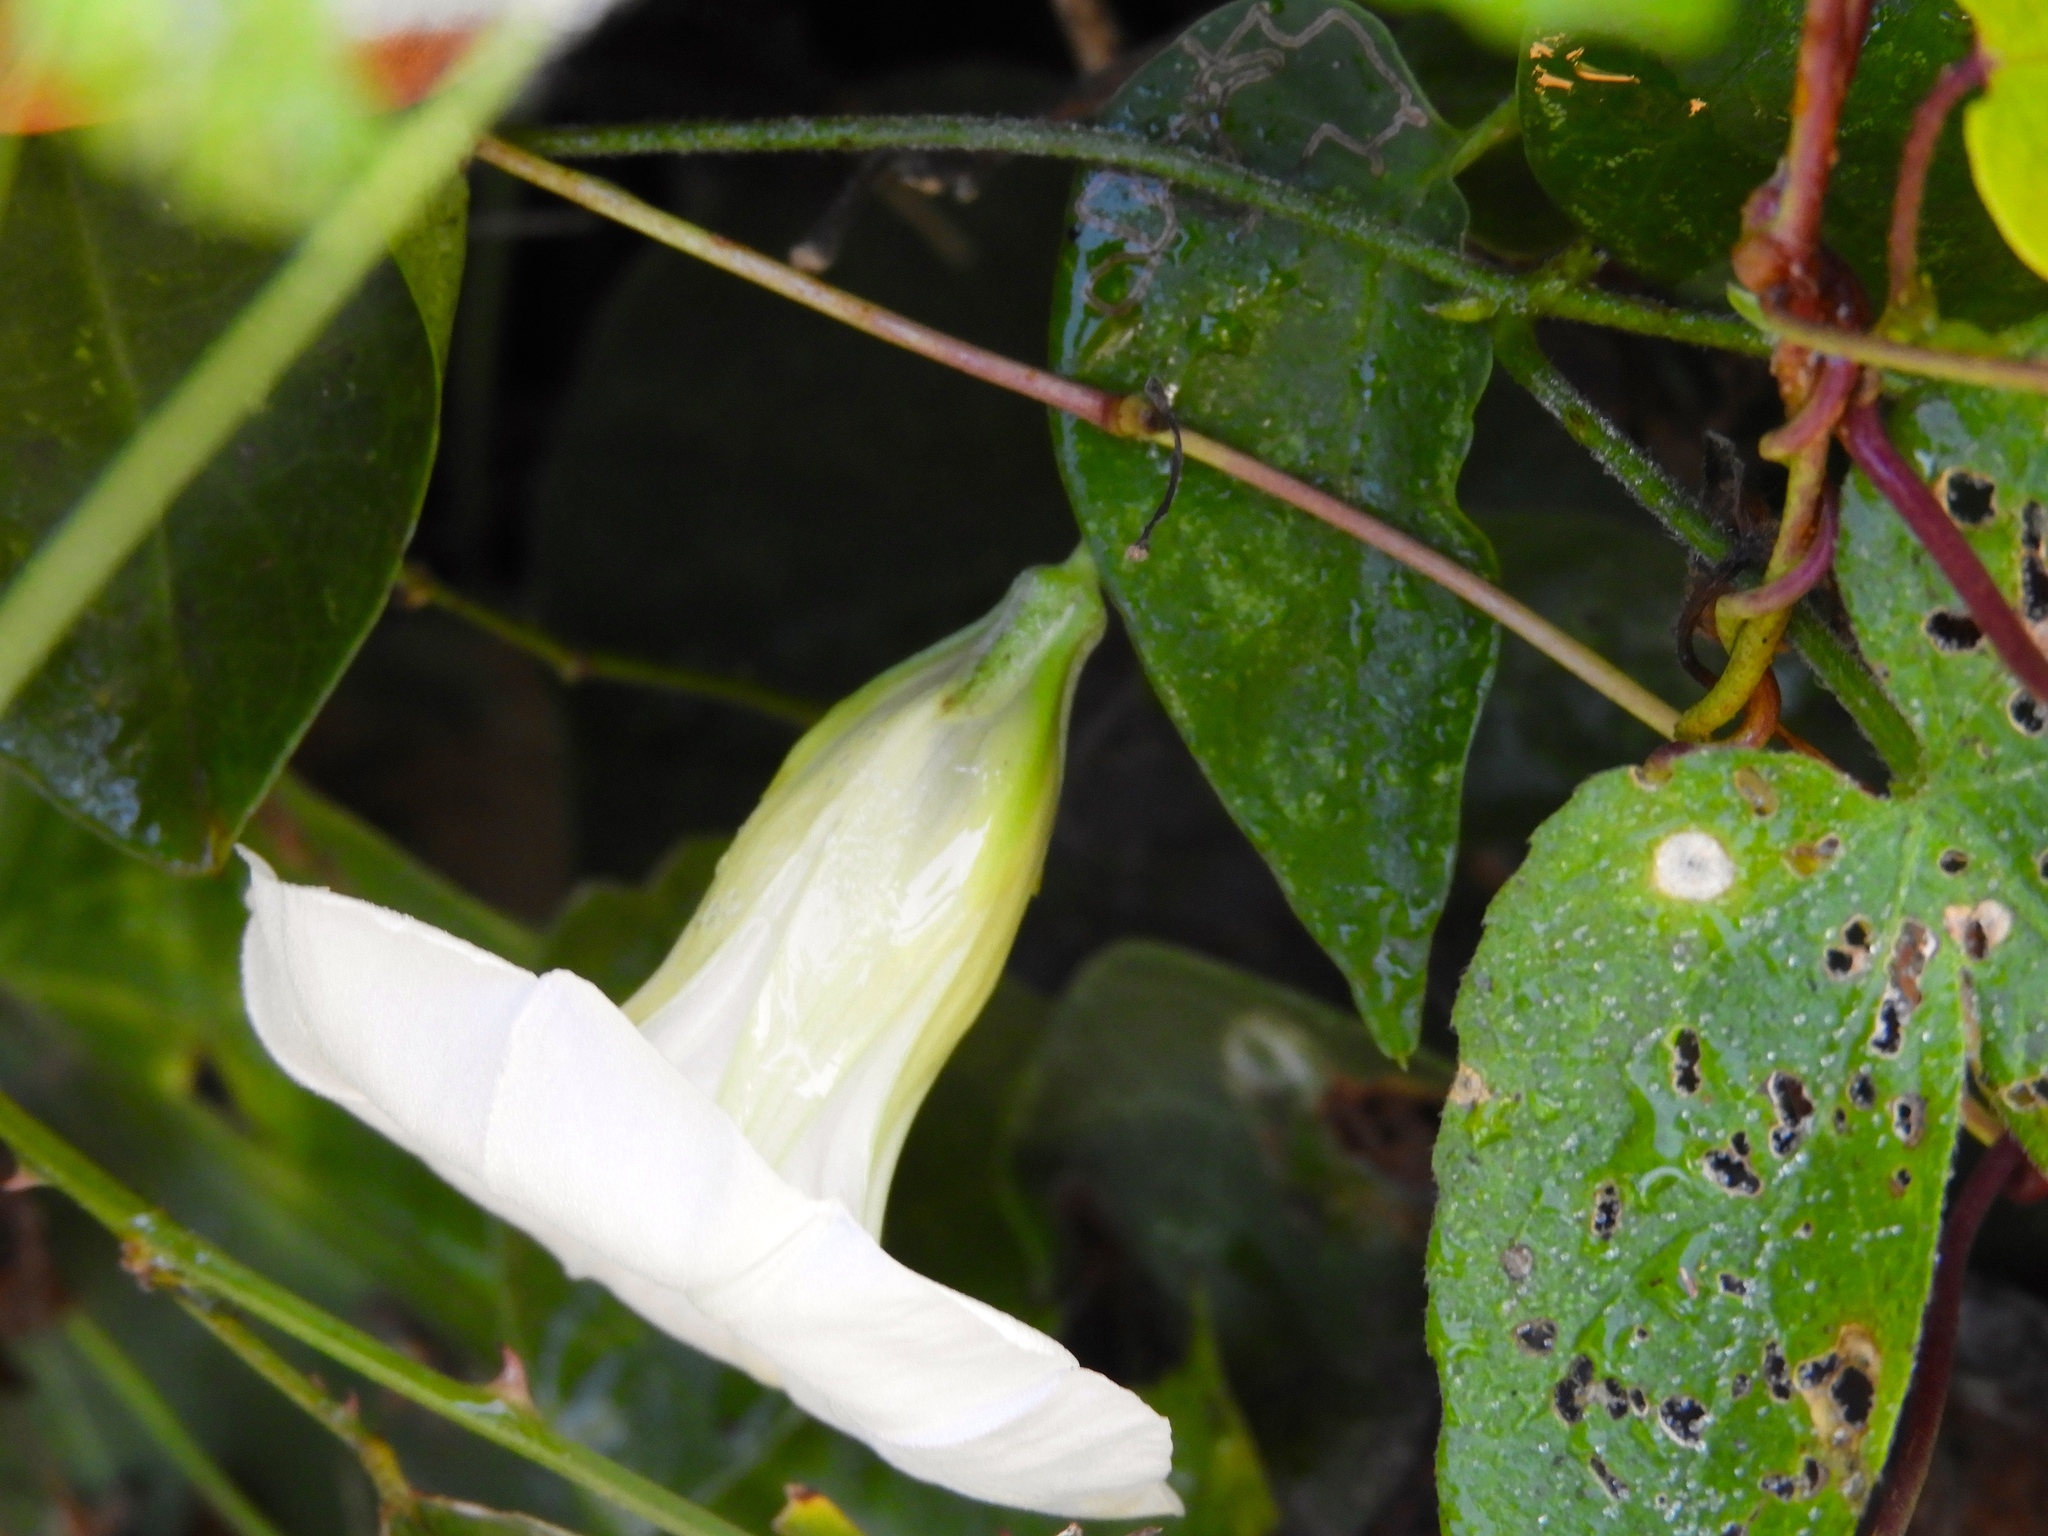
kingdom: Plantae
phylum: Tracheophyta
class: Magnoliopsida
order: Solanales
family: Convolvulaceae
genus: Ipomoea
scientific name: Ipomoea corymbosa
